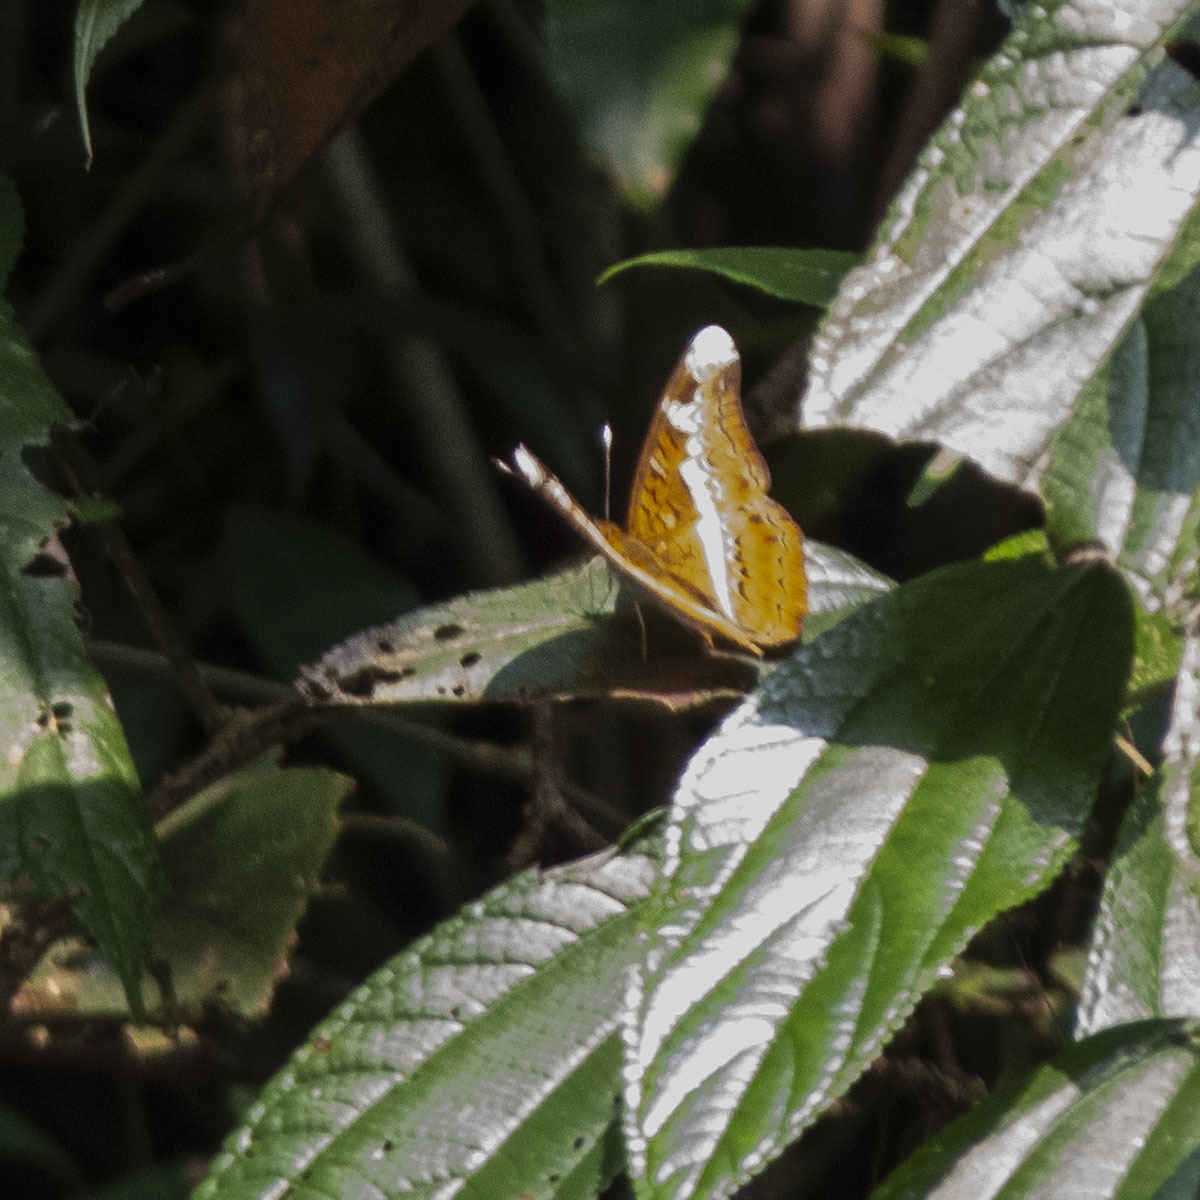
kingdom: Animalia
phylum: Arthropoda
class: Insecta
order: Lepidoptera
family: Nymphalidae
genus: Lebadea
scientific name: Lebadea martha
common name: Knight
